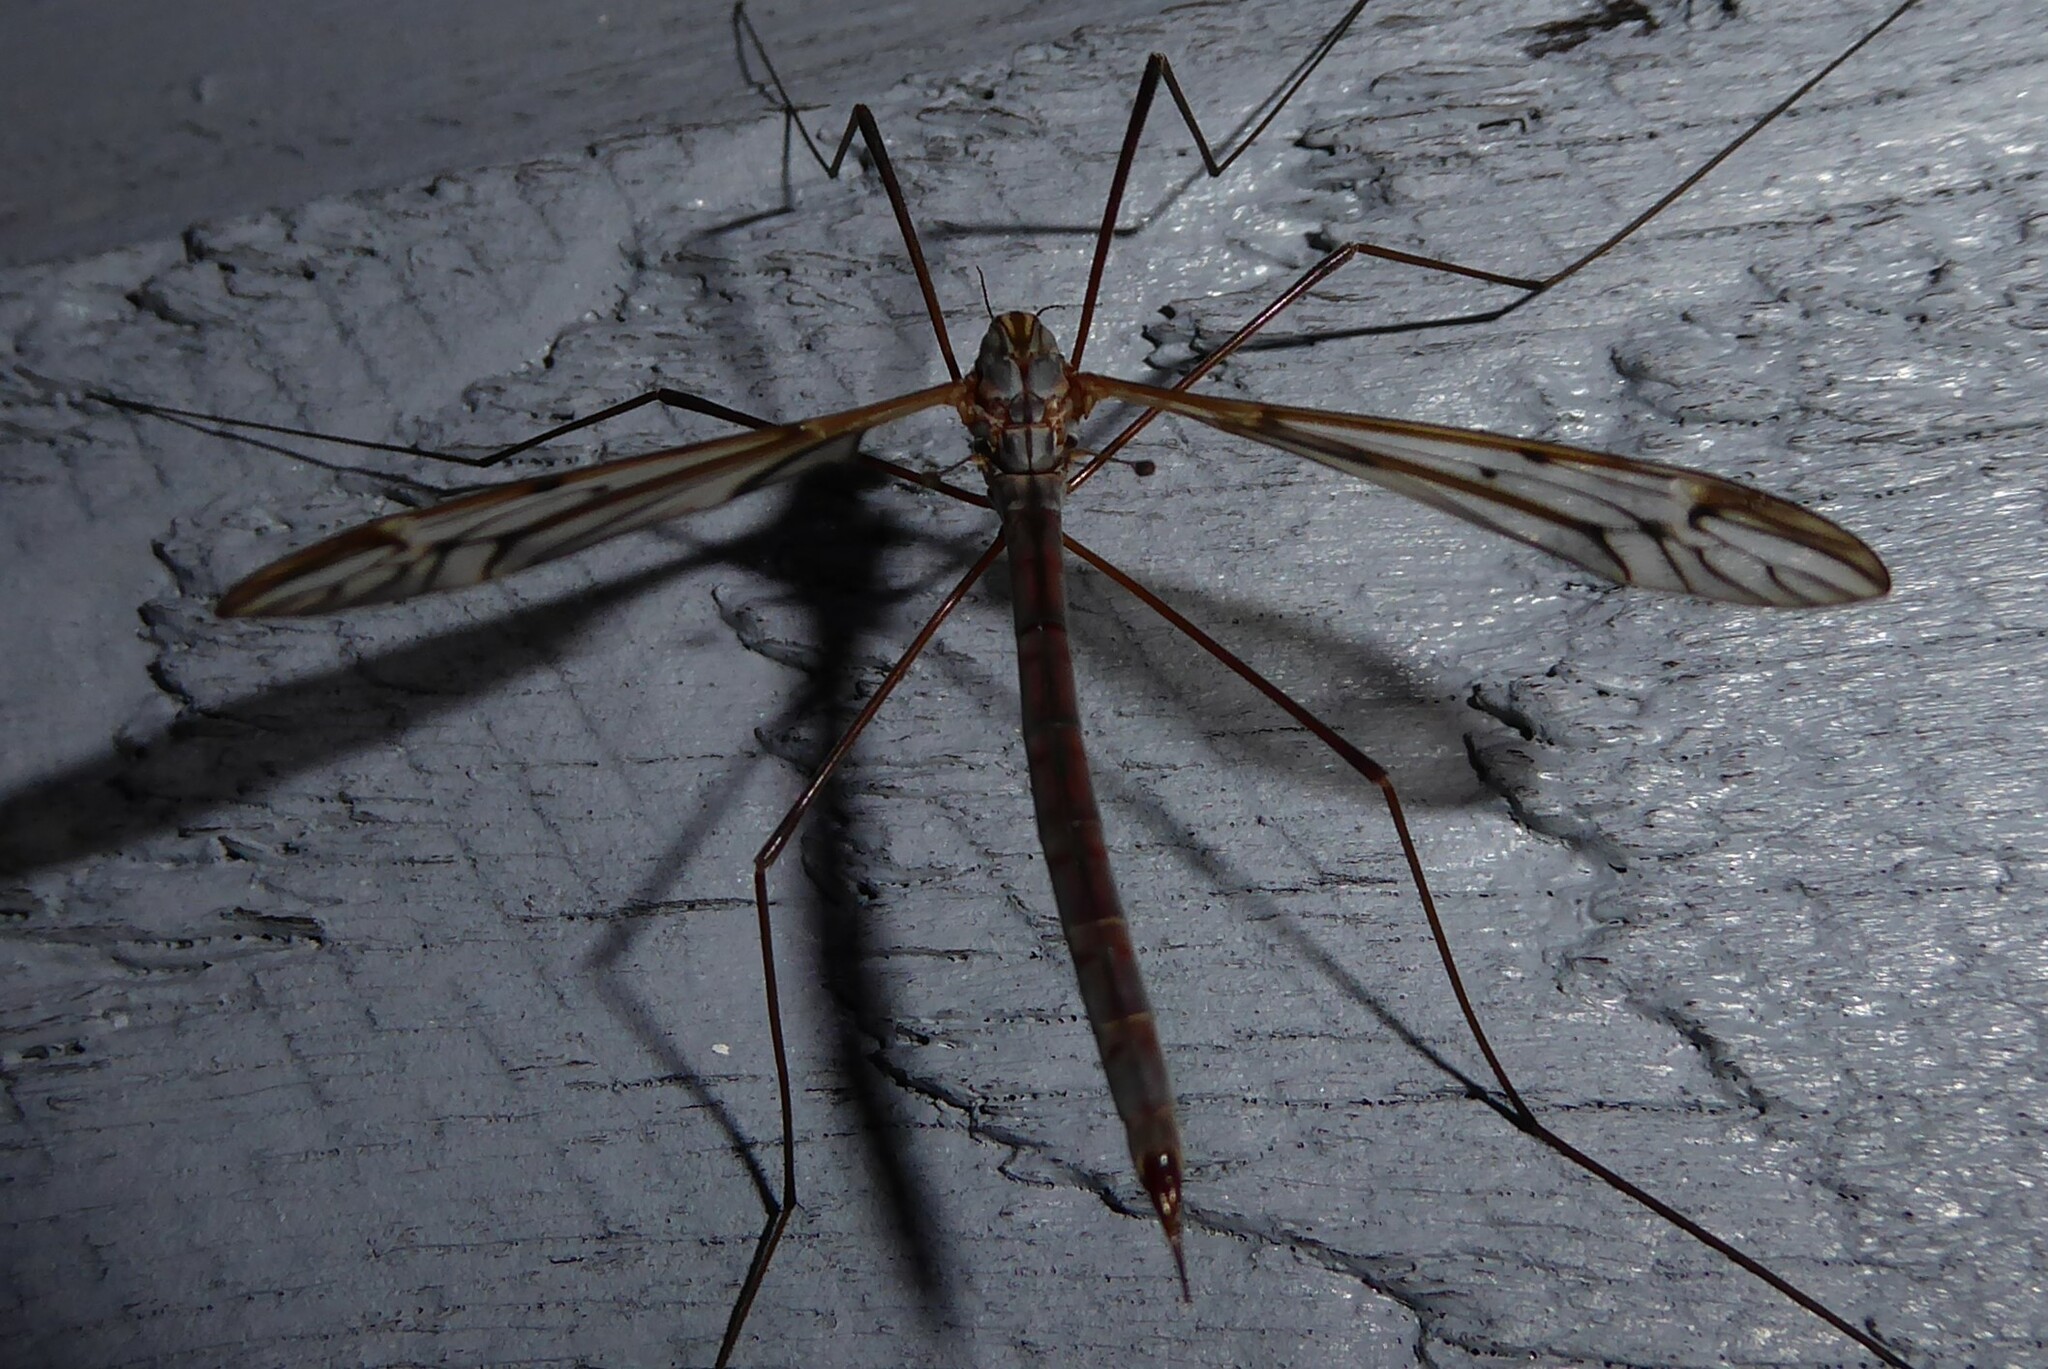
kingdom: Animalia
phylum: Arthropoda
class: Insecta
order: Diptera
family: Tipulidae
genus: Zelandotipula
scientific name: Zelandotipula novarae
